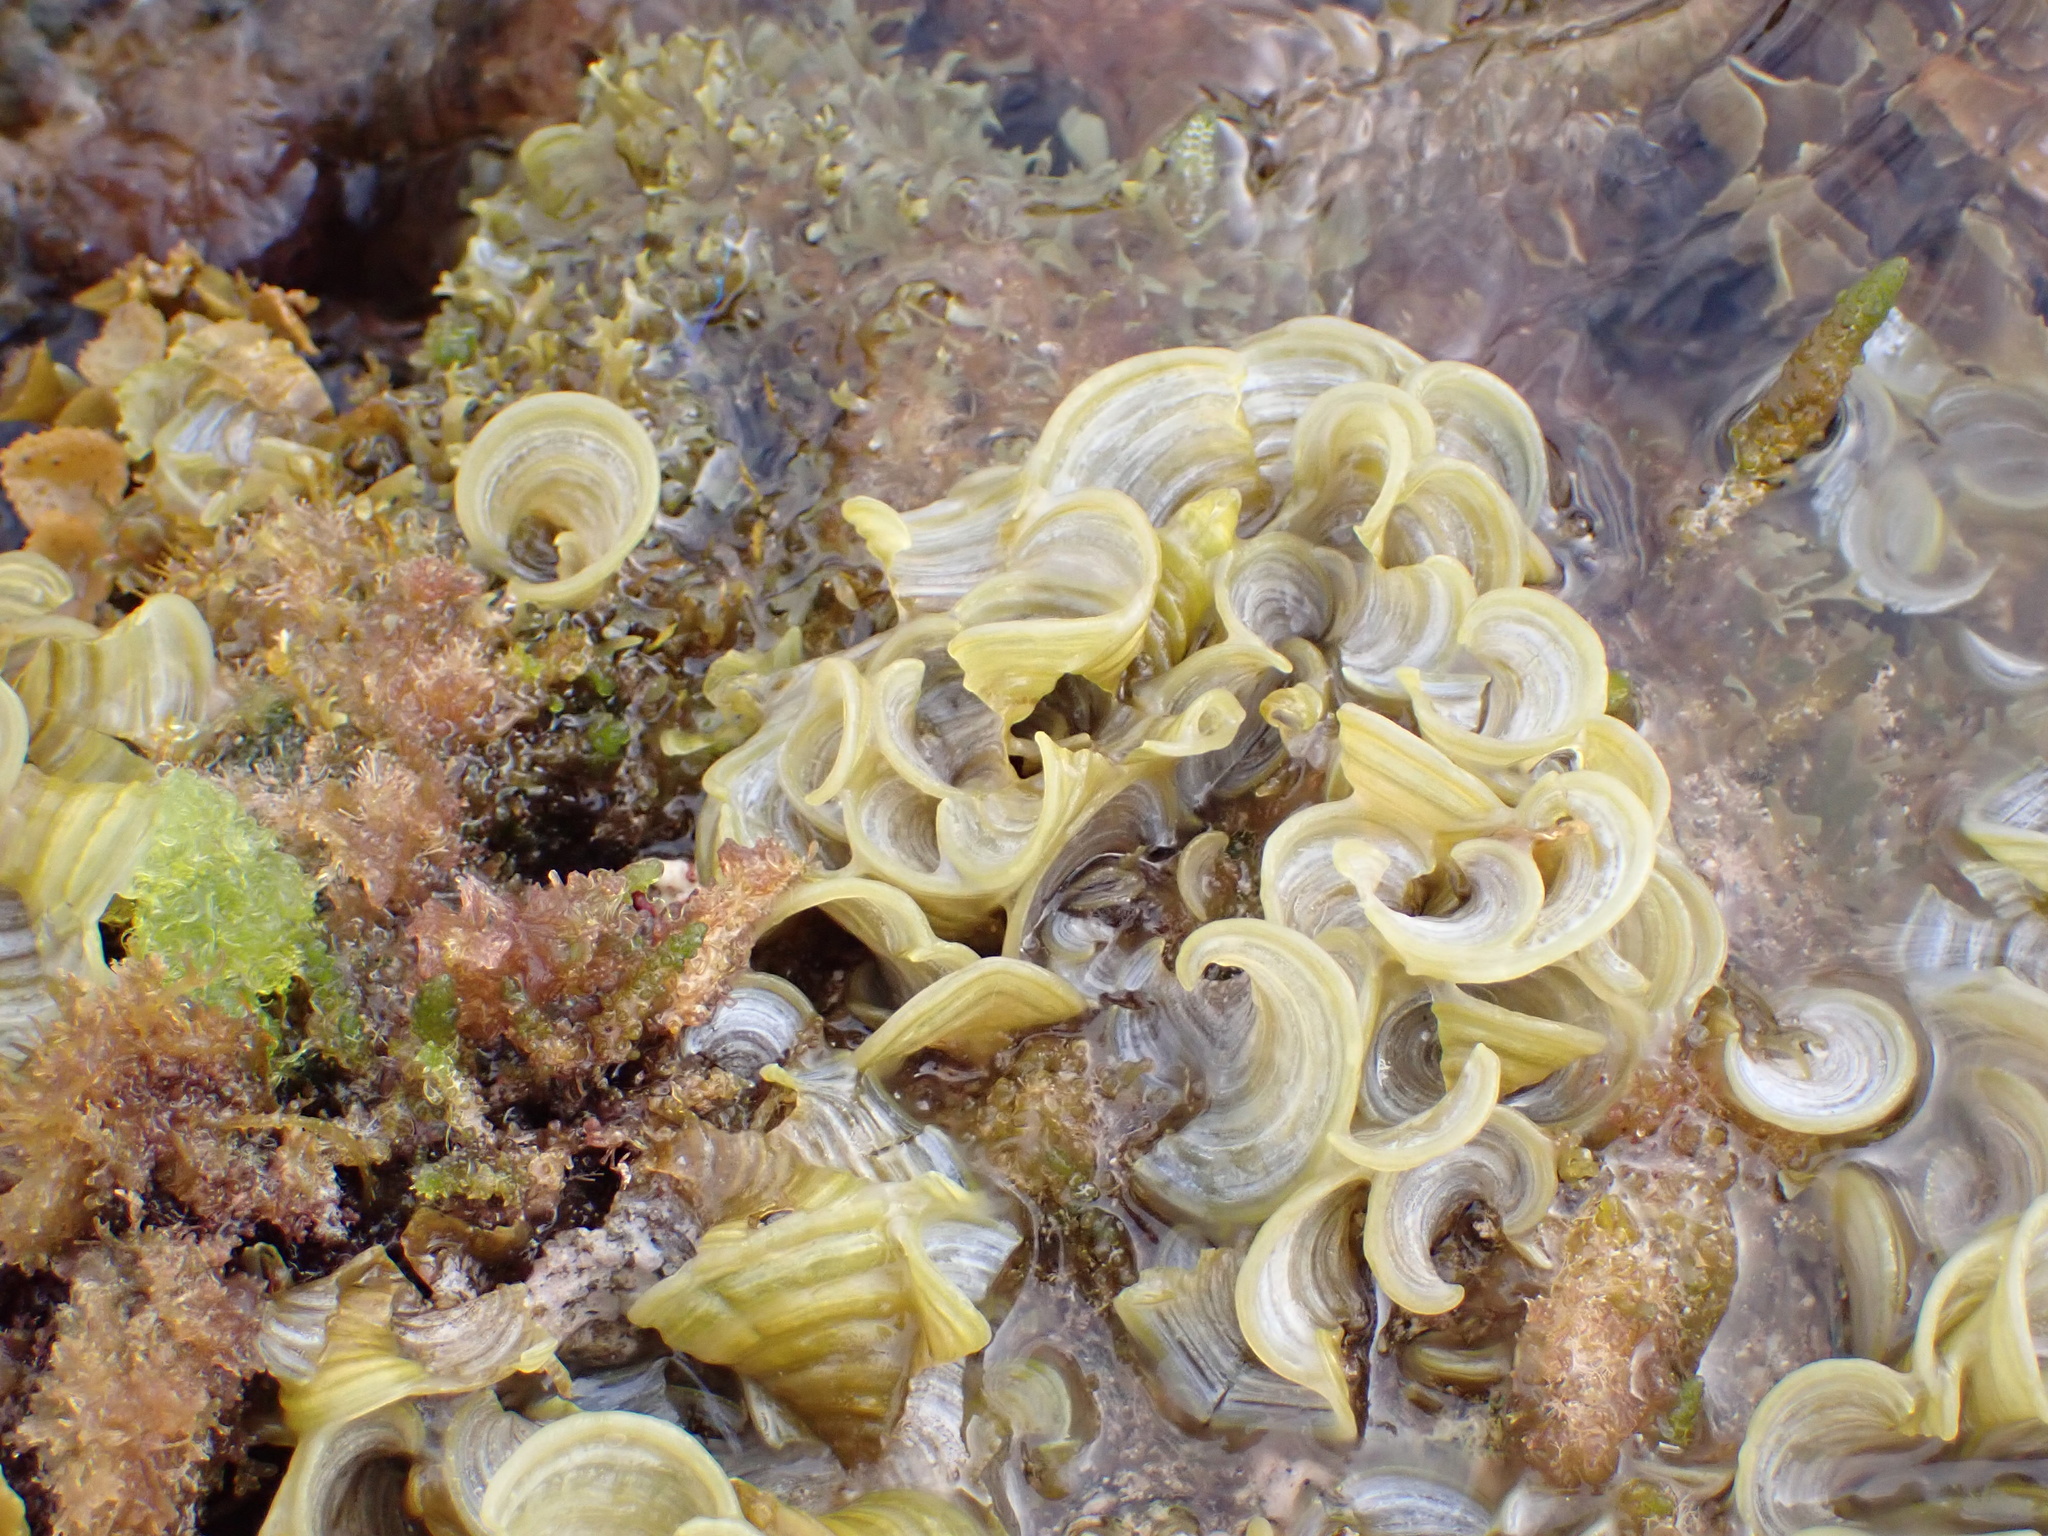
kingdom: Chromista
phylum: Ochrophyta
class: Phaeophyceae
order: Dictyotales
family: Dictyotaceae
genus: Padina
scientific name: Padina sanctae-crucis
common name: White scroll algae
